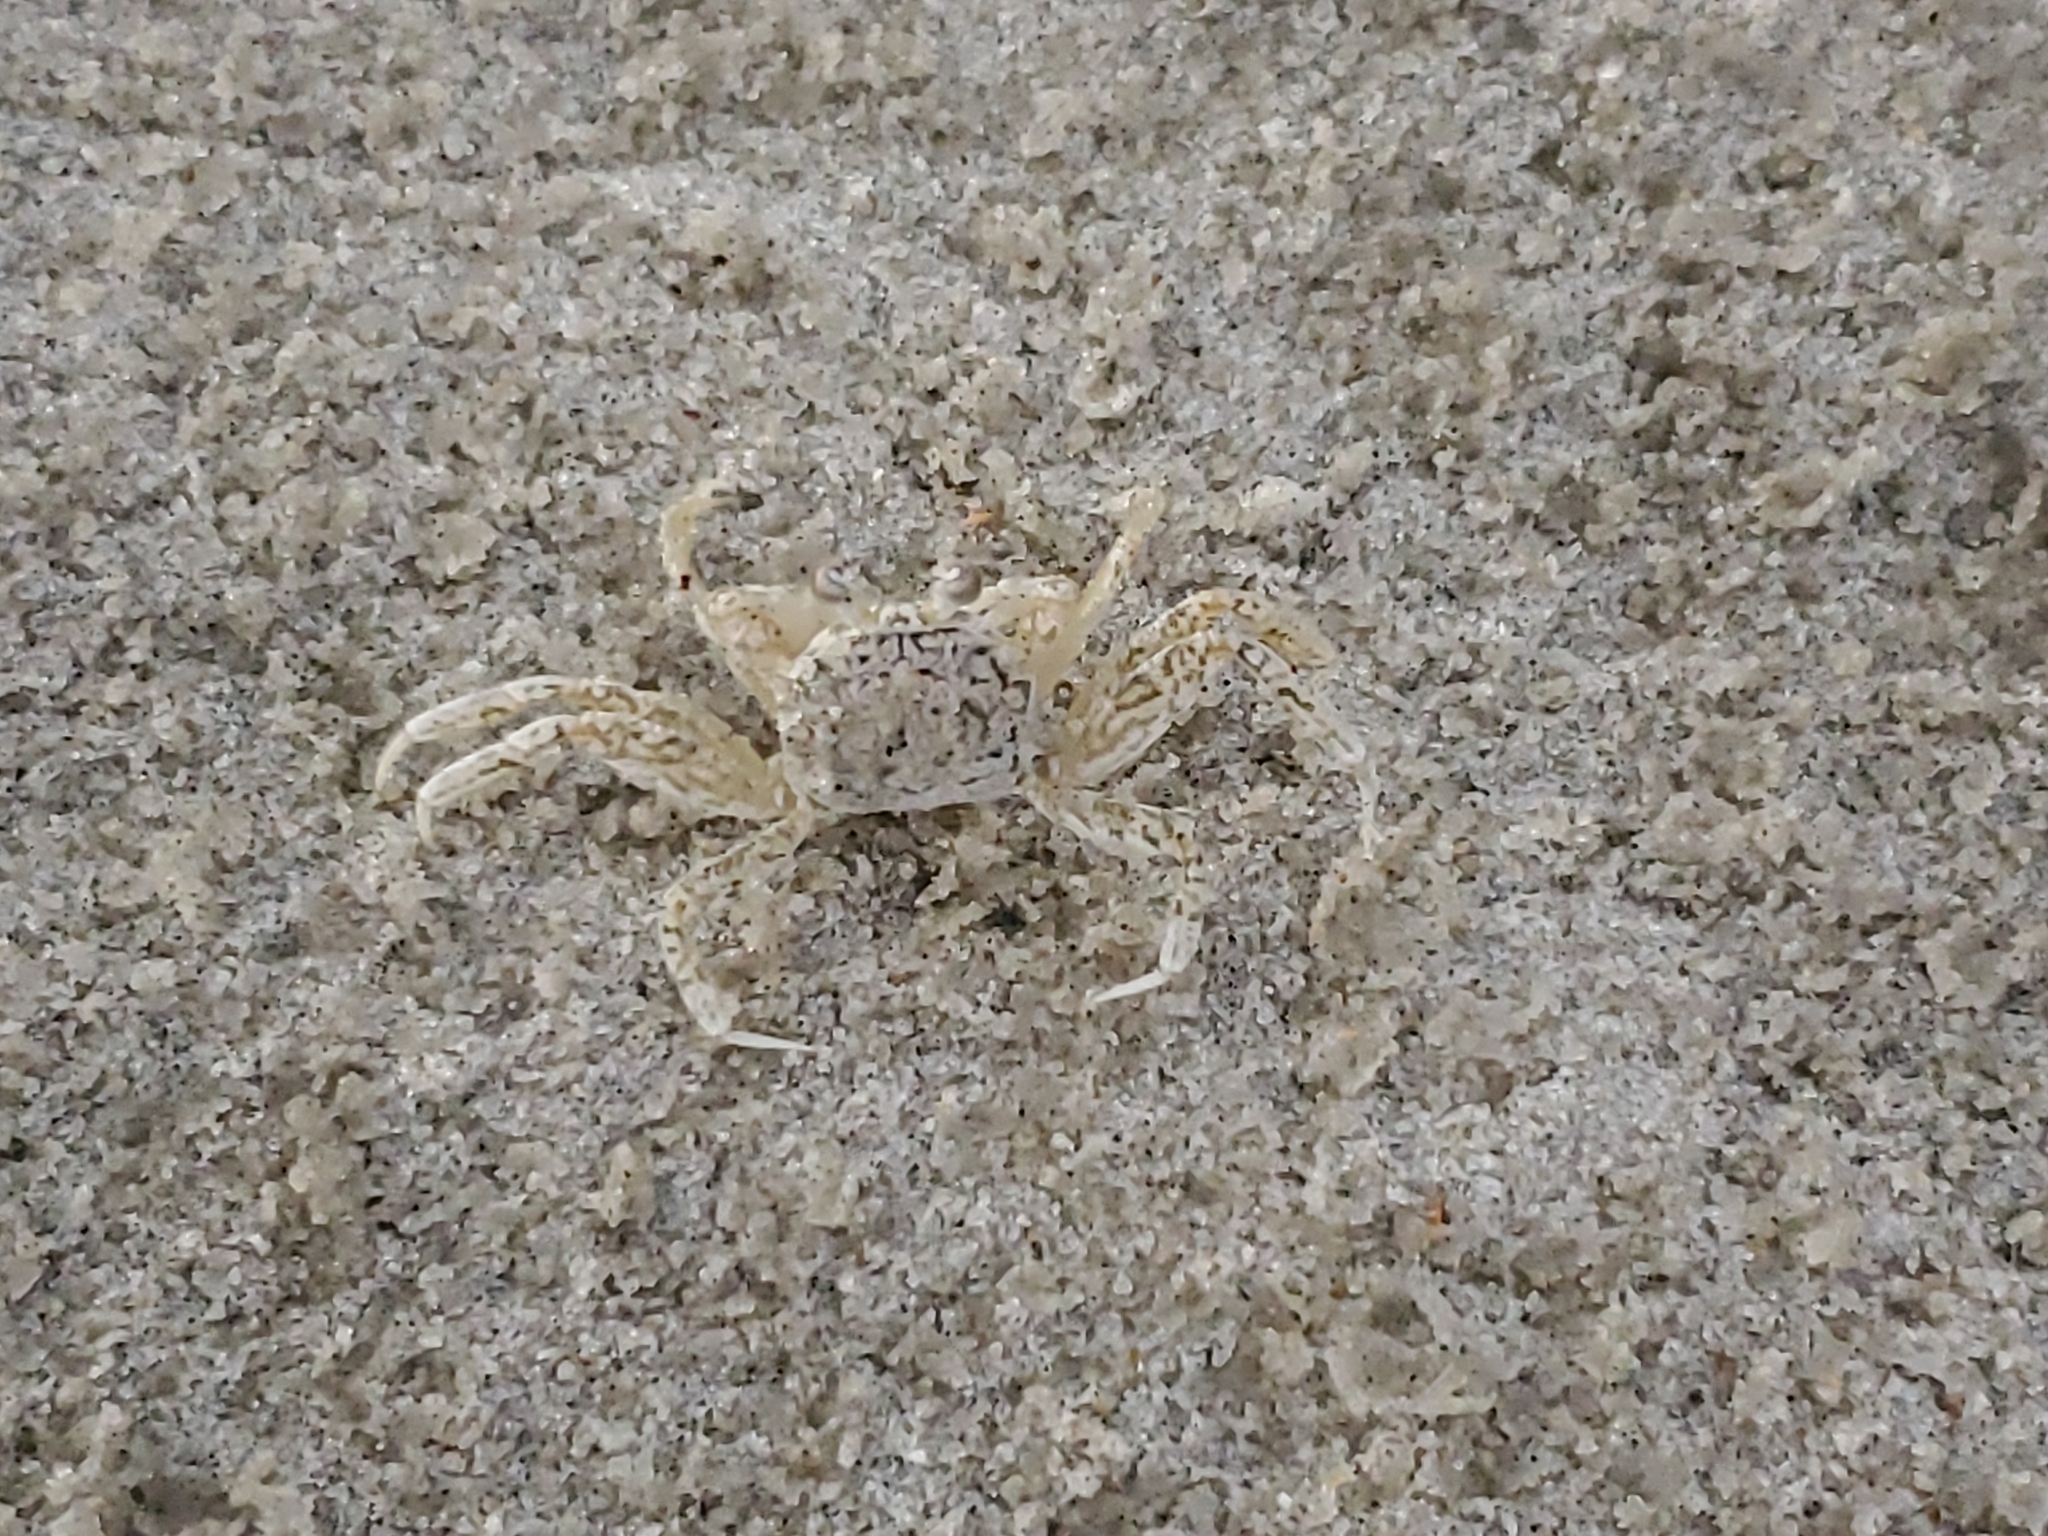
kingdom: Animalia
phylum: Arthropoda
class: Malacostraca
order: Decapoda
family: Ocypodidae
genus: Ocypode
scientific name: Ocypode quadrata
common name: Ghost crab
